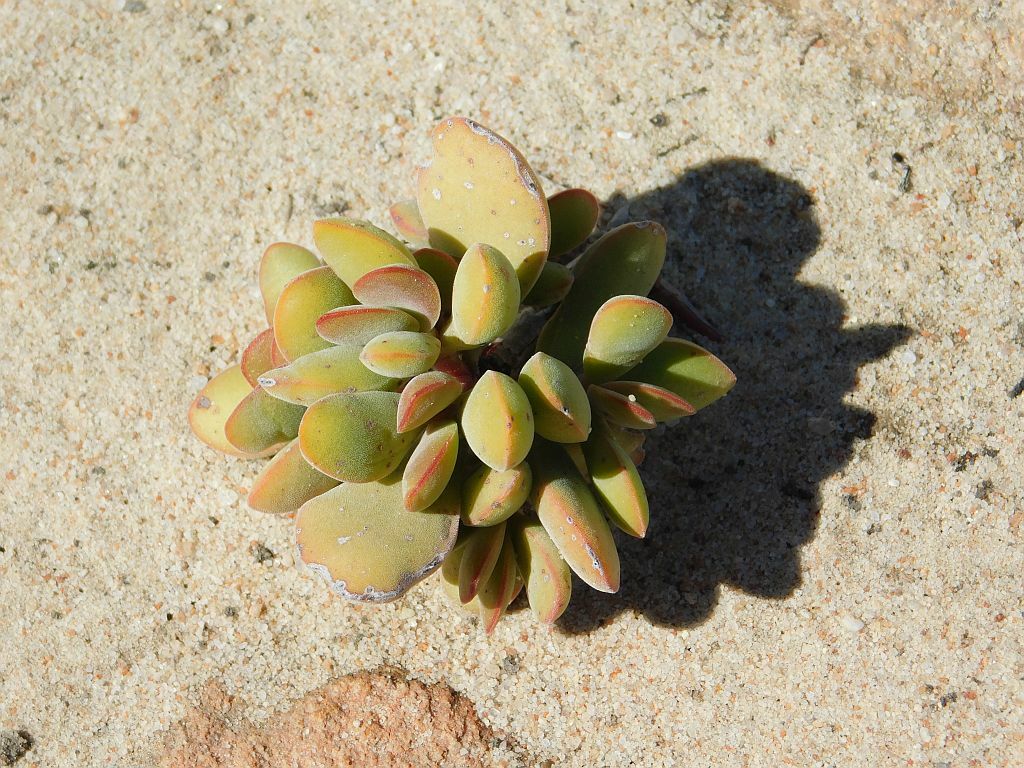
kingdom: Plantae
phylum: Tracheophyta
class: Magnoliopsida
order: Saxifragales
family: Crassulaceae
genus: Crassula
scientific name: Crassula atropurpurea
